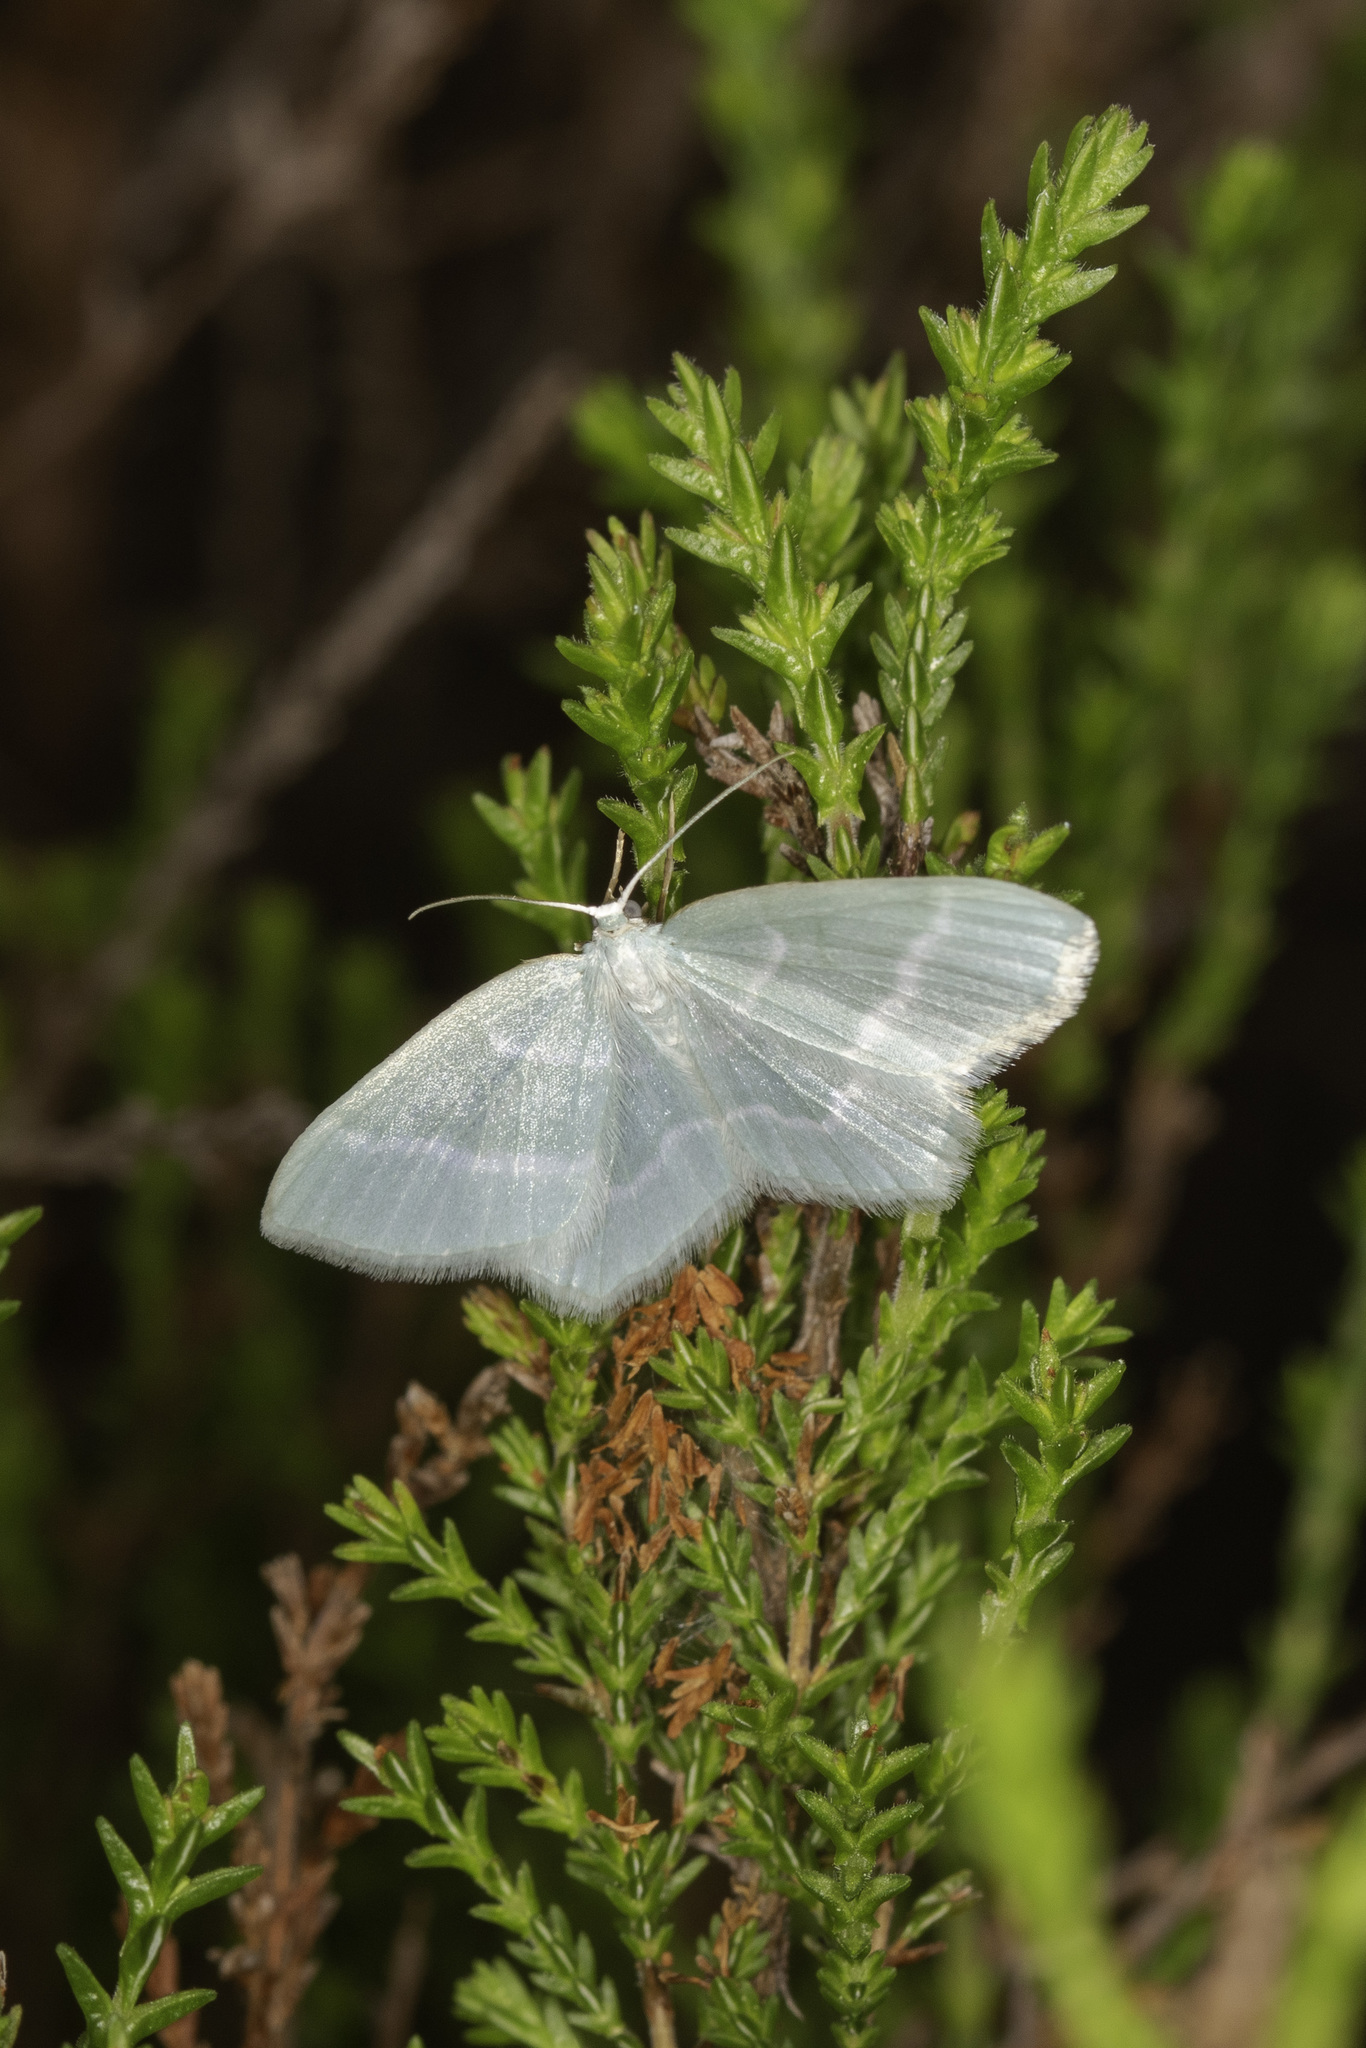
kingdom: Animalia
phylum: Arthropoda
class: Insecta
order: Lepidoptera
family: Geometridae
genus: Jodis
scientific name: Jodis lactearia
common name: Little emerald
